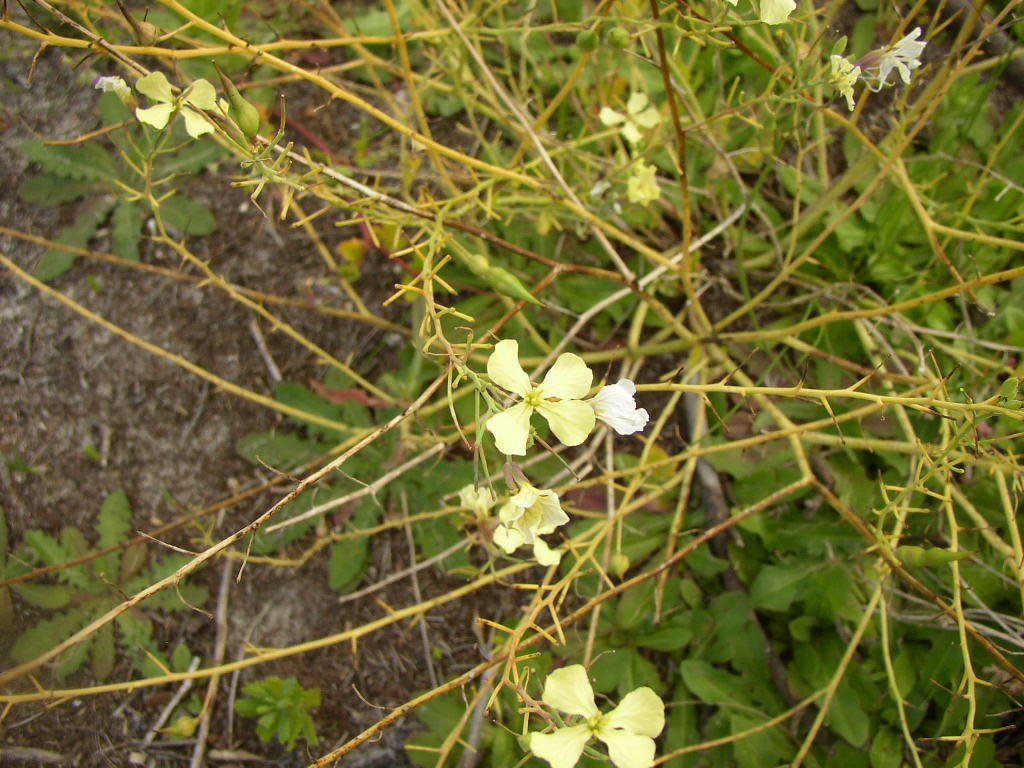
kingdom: Plantae
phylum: Tracheophyta
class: Magnoliopsida
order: Brassicales
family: Brassicaceae
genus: Raphanus
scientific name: Raphanus raphanistrum
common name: Wild radish
